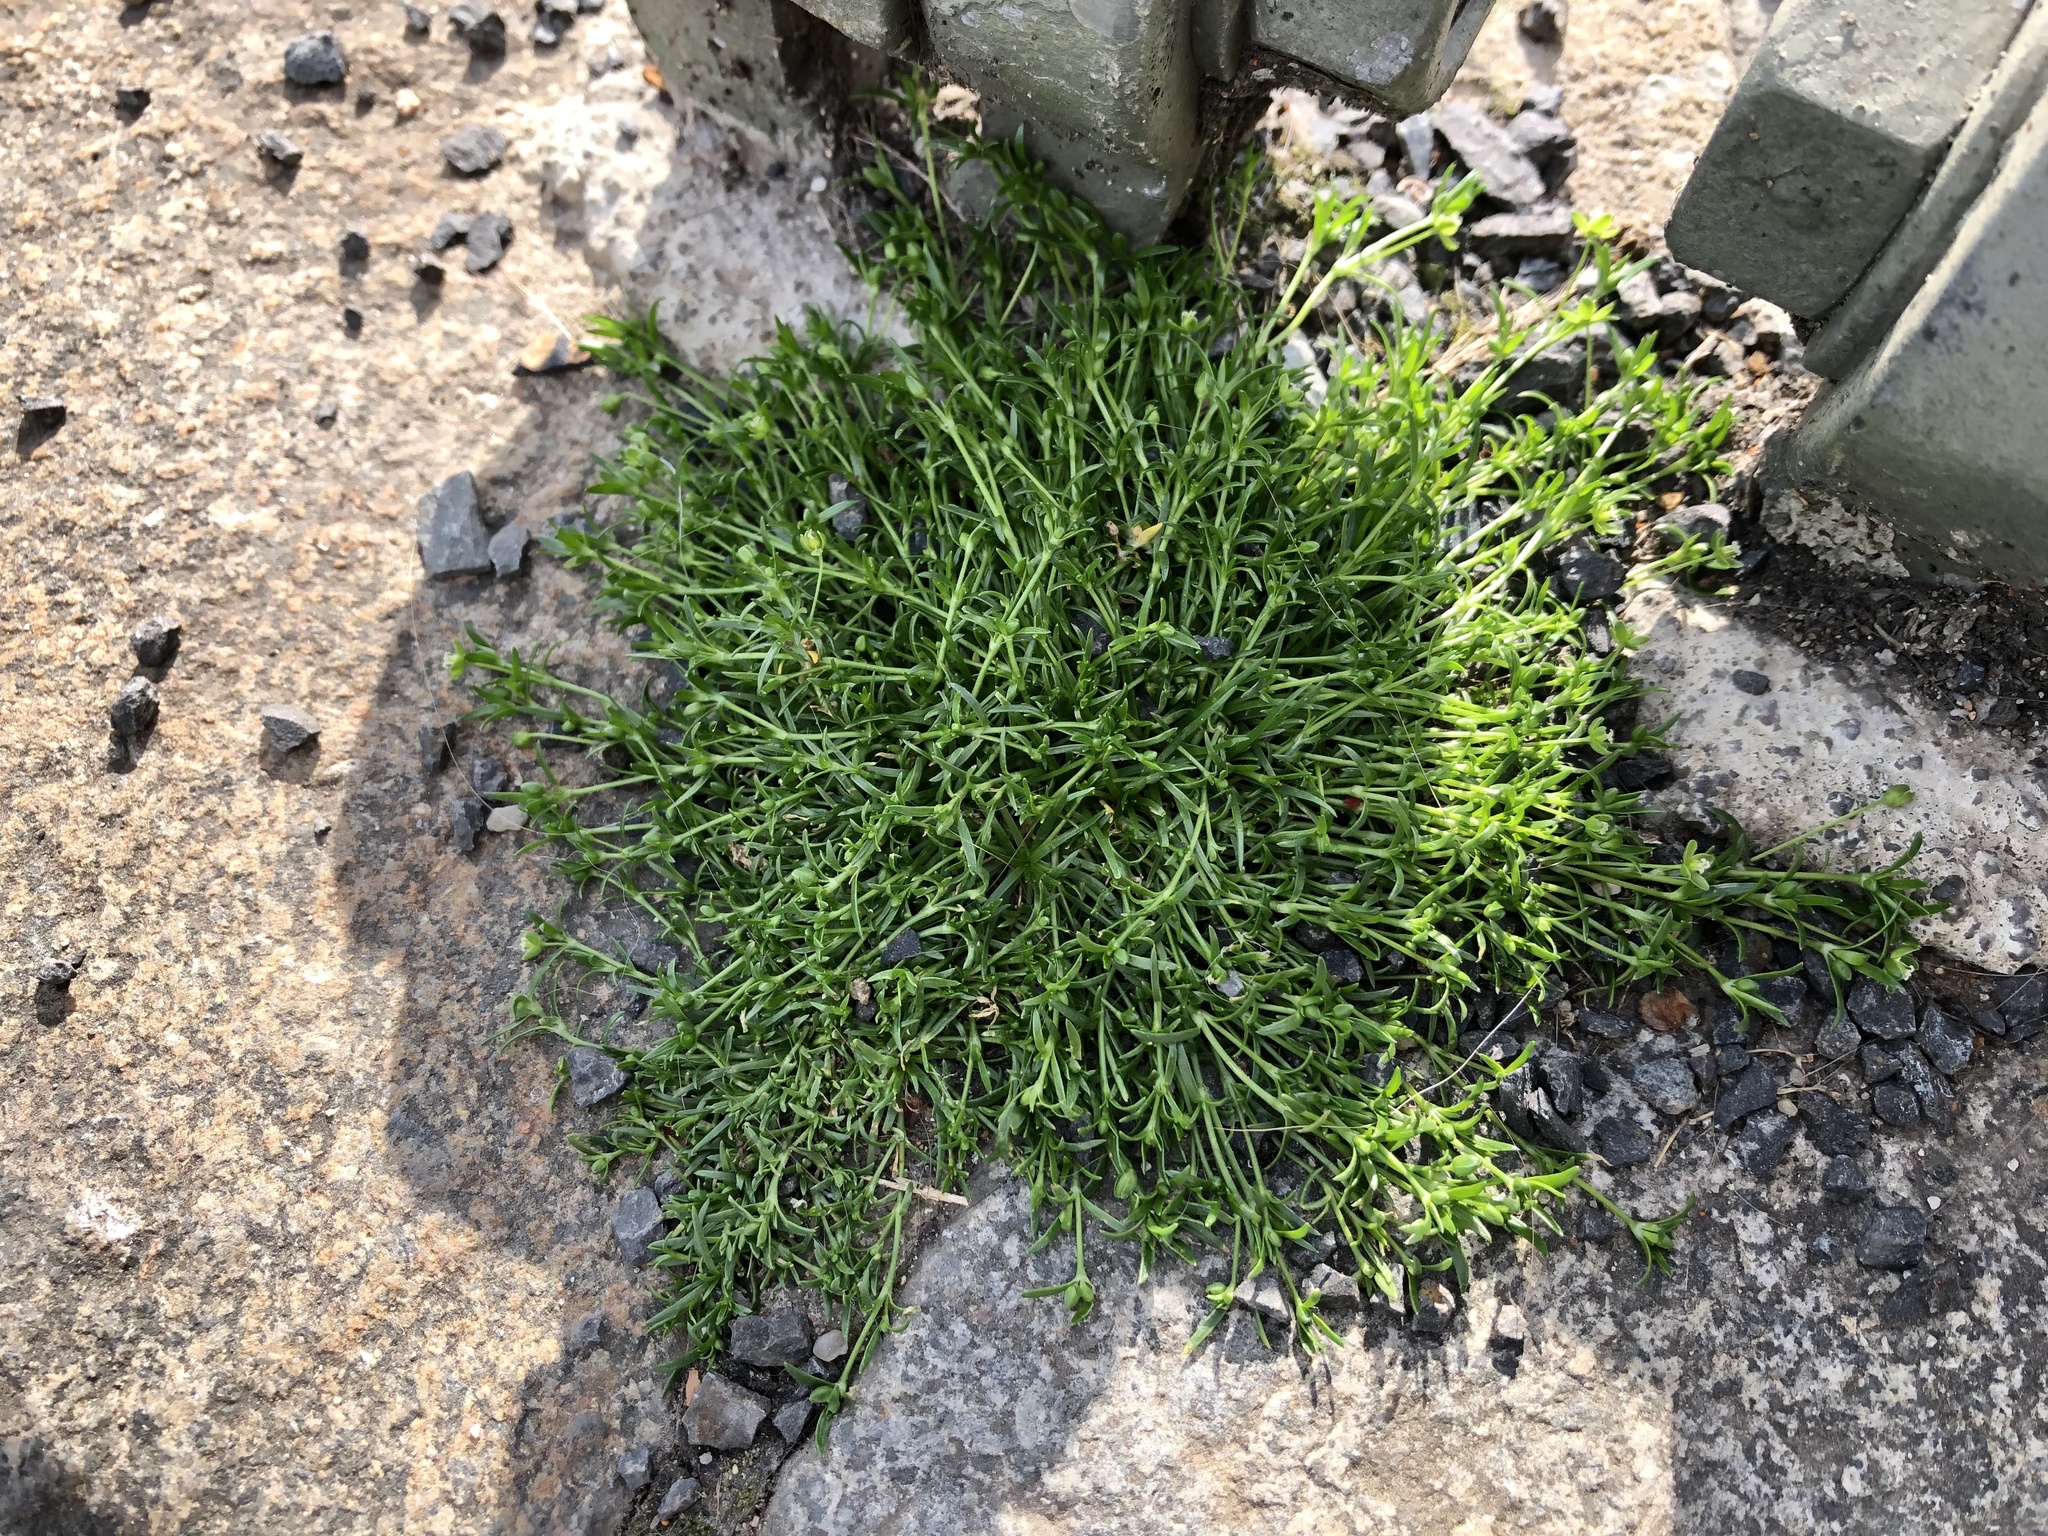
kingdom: Plantae
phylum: Tracheophyta
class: Magnoliopsida
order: Caryophyllales
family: Caryophyllaceae
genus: Sagina
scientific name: Sagina procumbens
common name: Procumbent pearlwort
